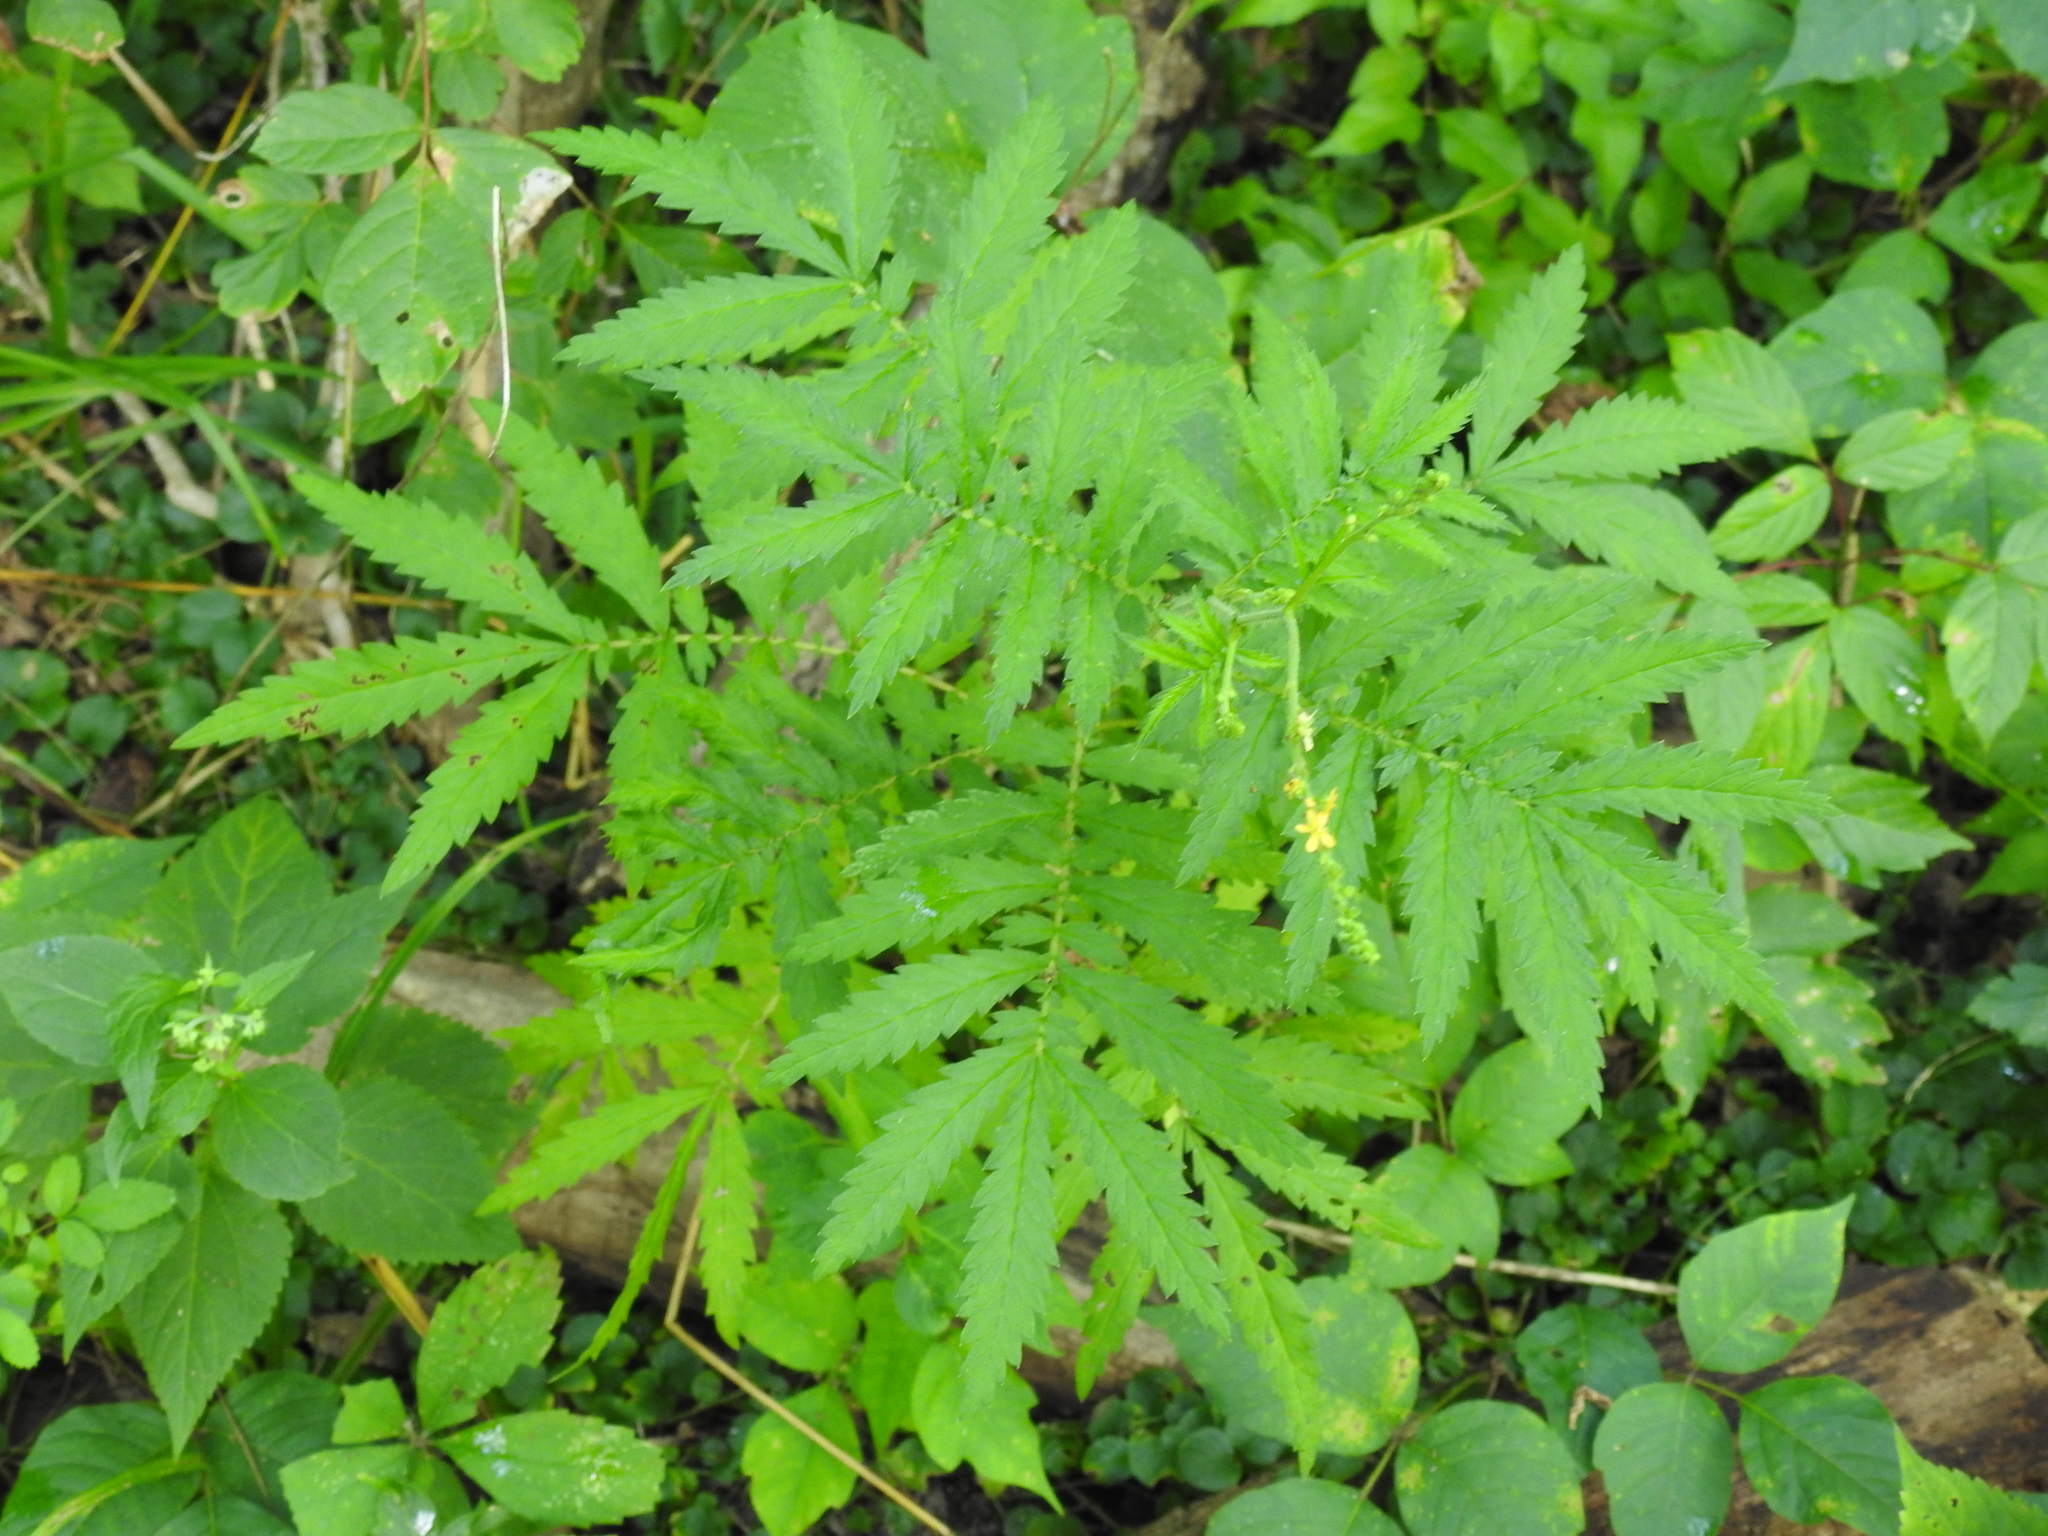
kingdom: Plantae
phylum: Tracheophyta
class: Magnoliopsida
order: Rosales
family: Rosaceae
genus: Agrimonia
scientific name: Agrimonia parviflora
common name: Harvest-lice
